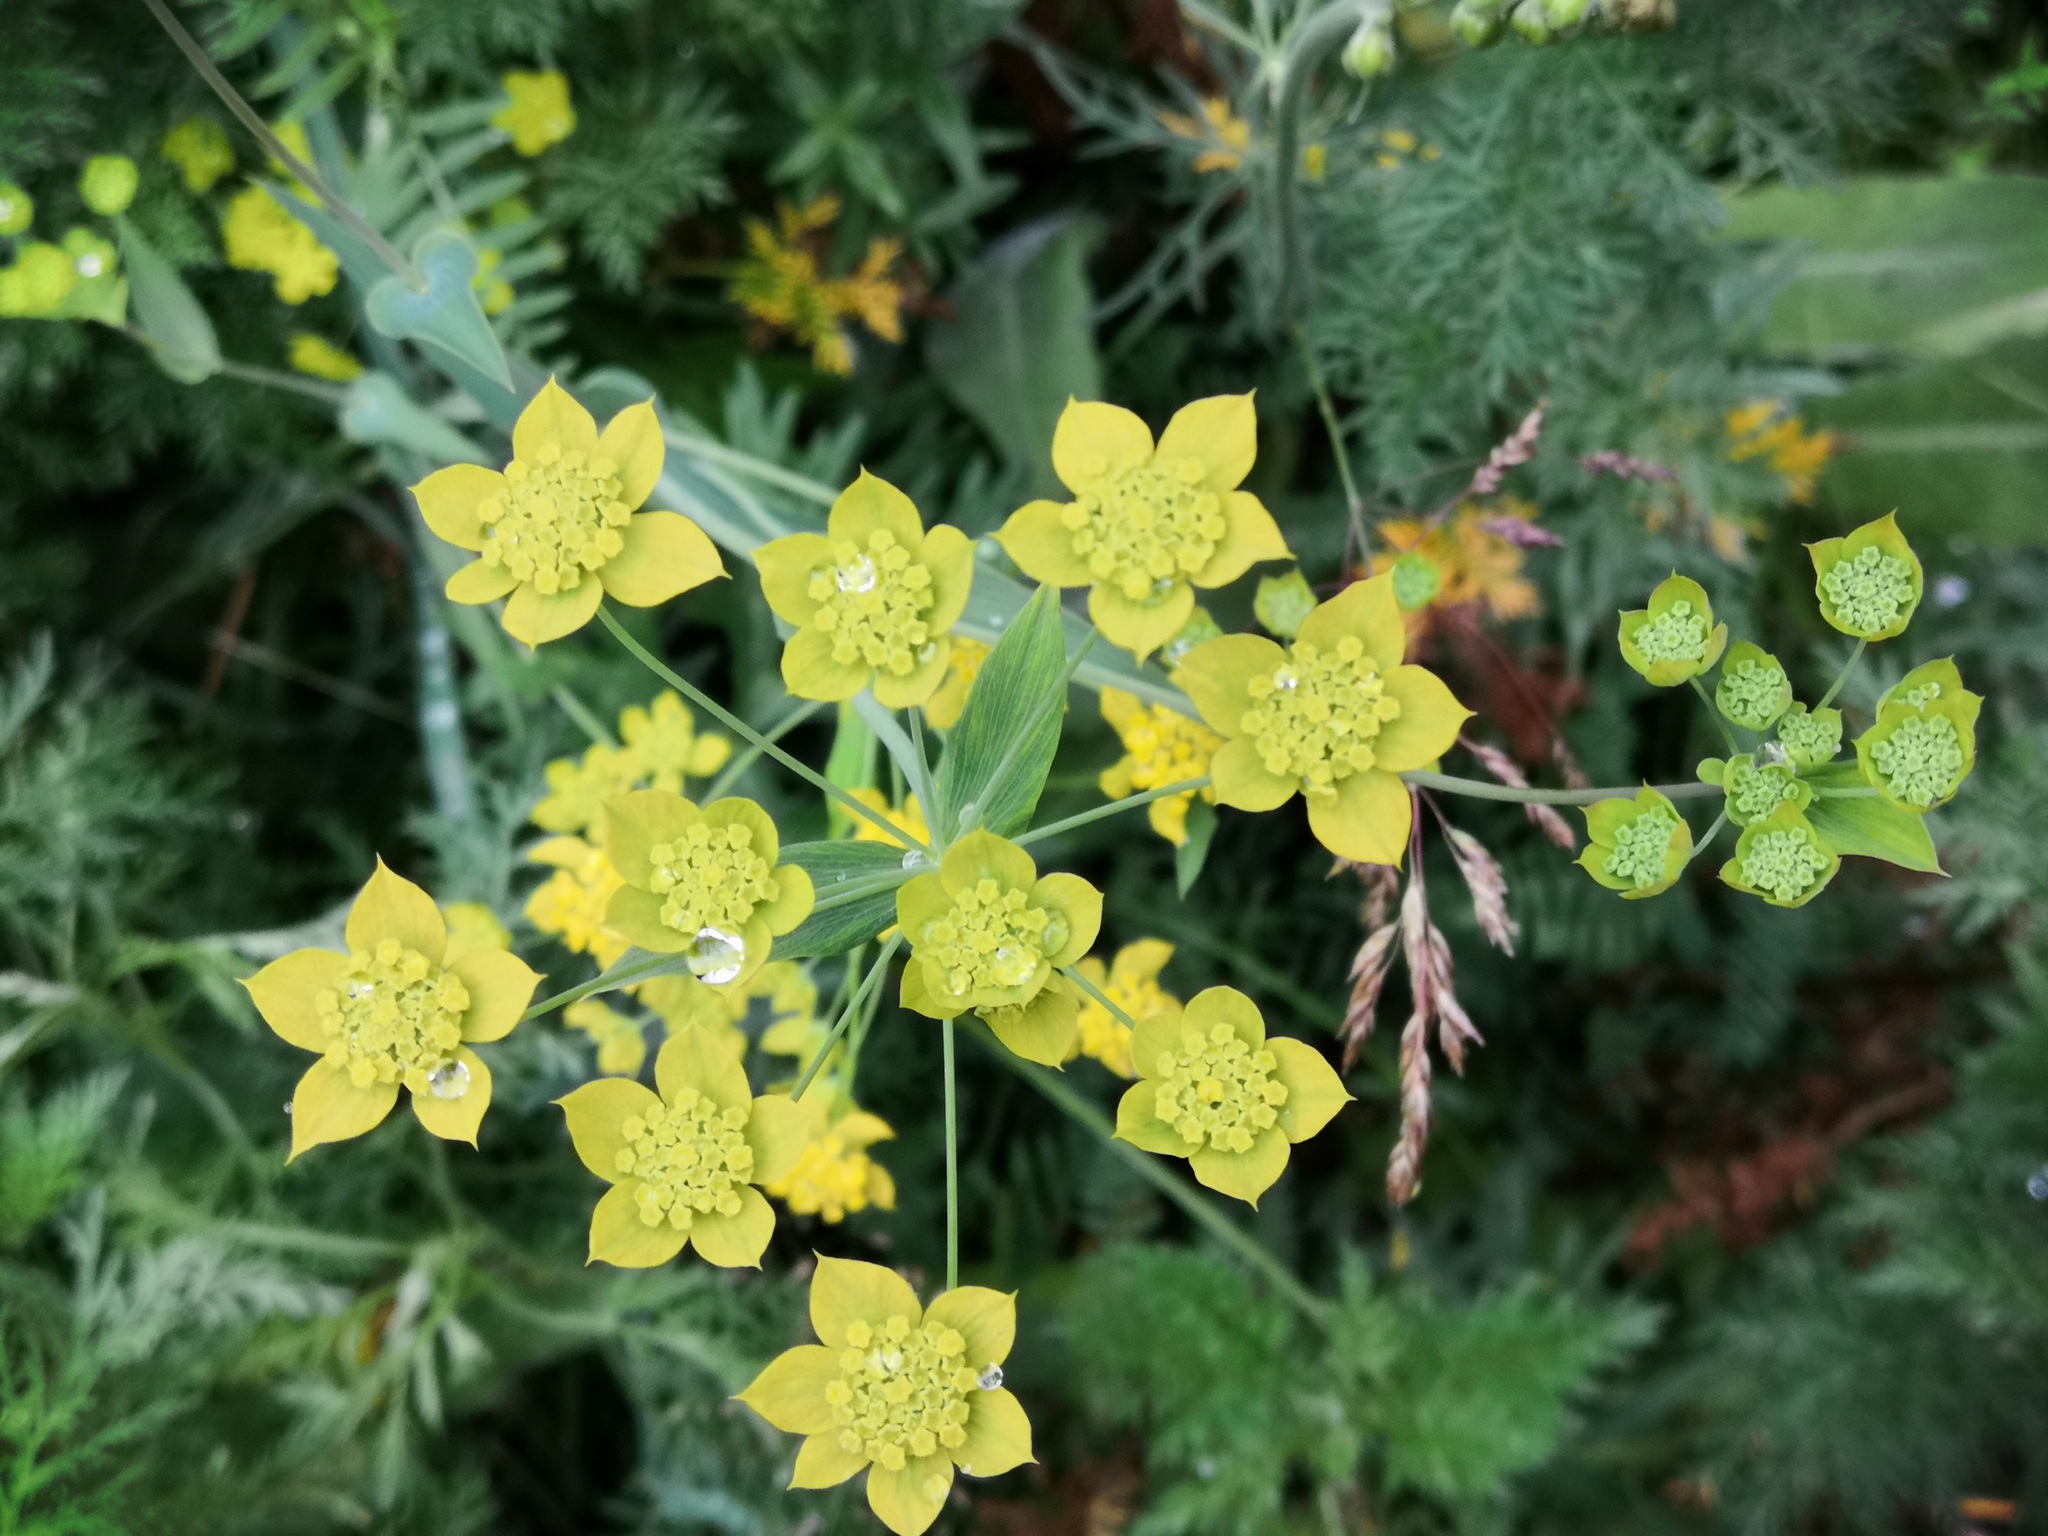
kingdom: Plantae
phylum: Tracheophyta
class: Magnoliopsida
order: Apiales
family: Apiaceae
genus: Bupleurum
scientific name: Bupleurum multinerve
